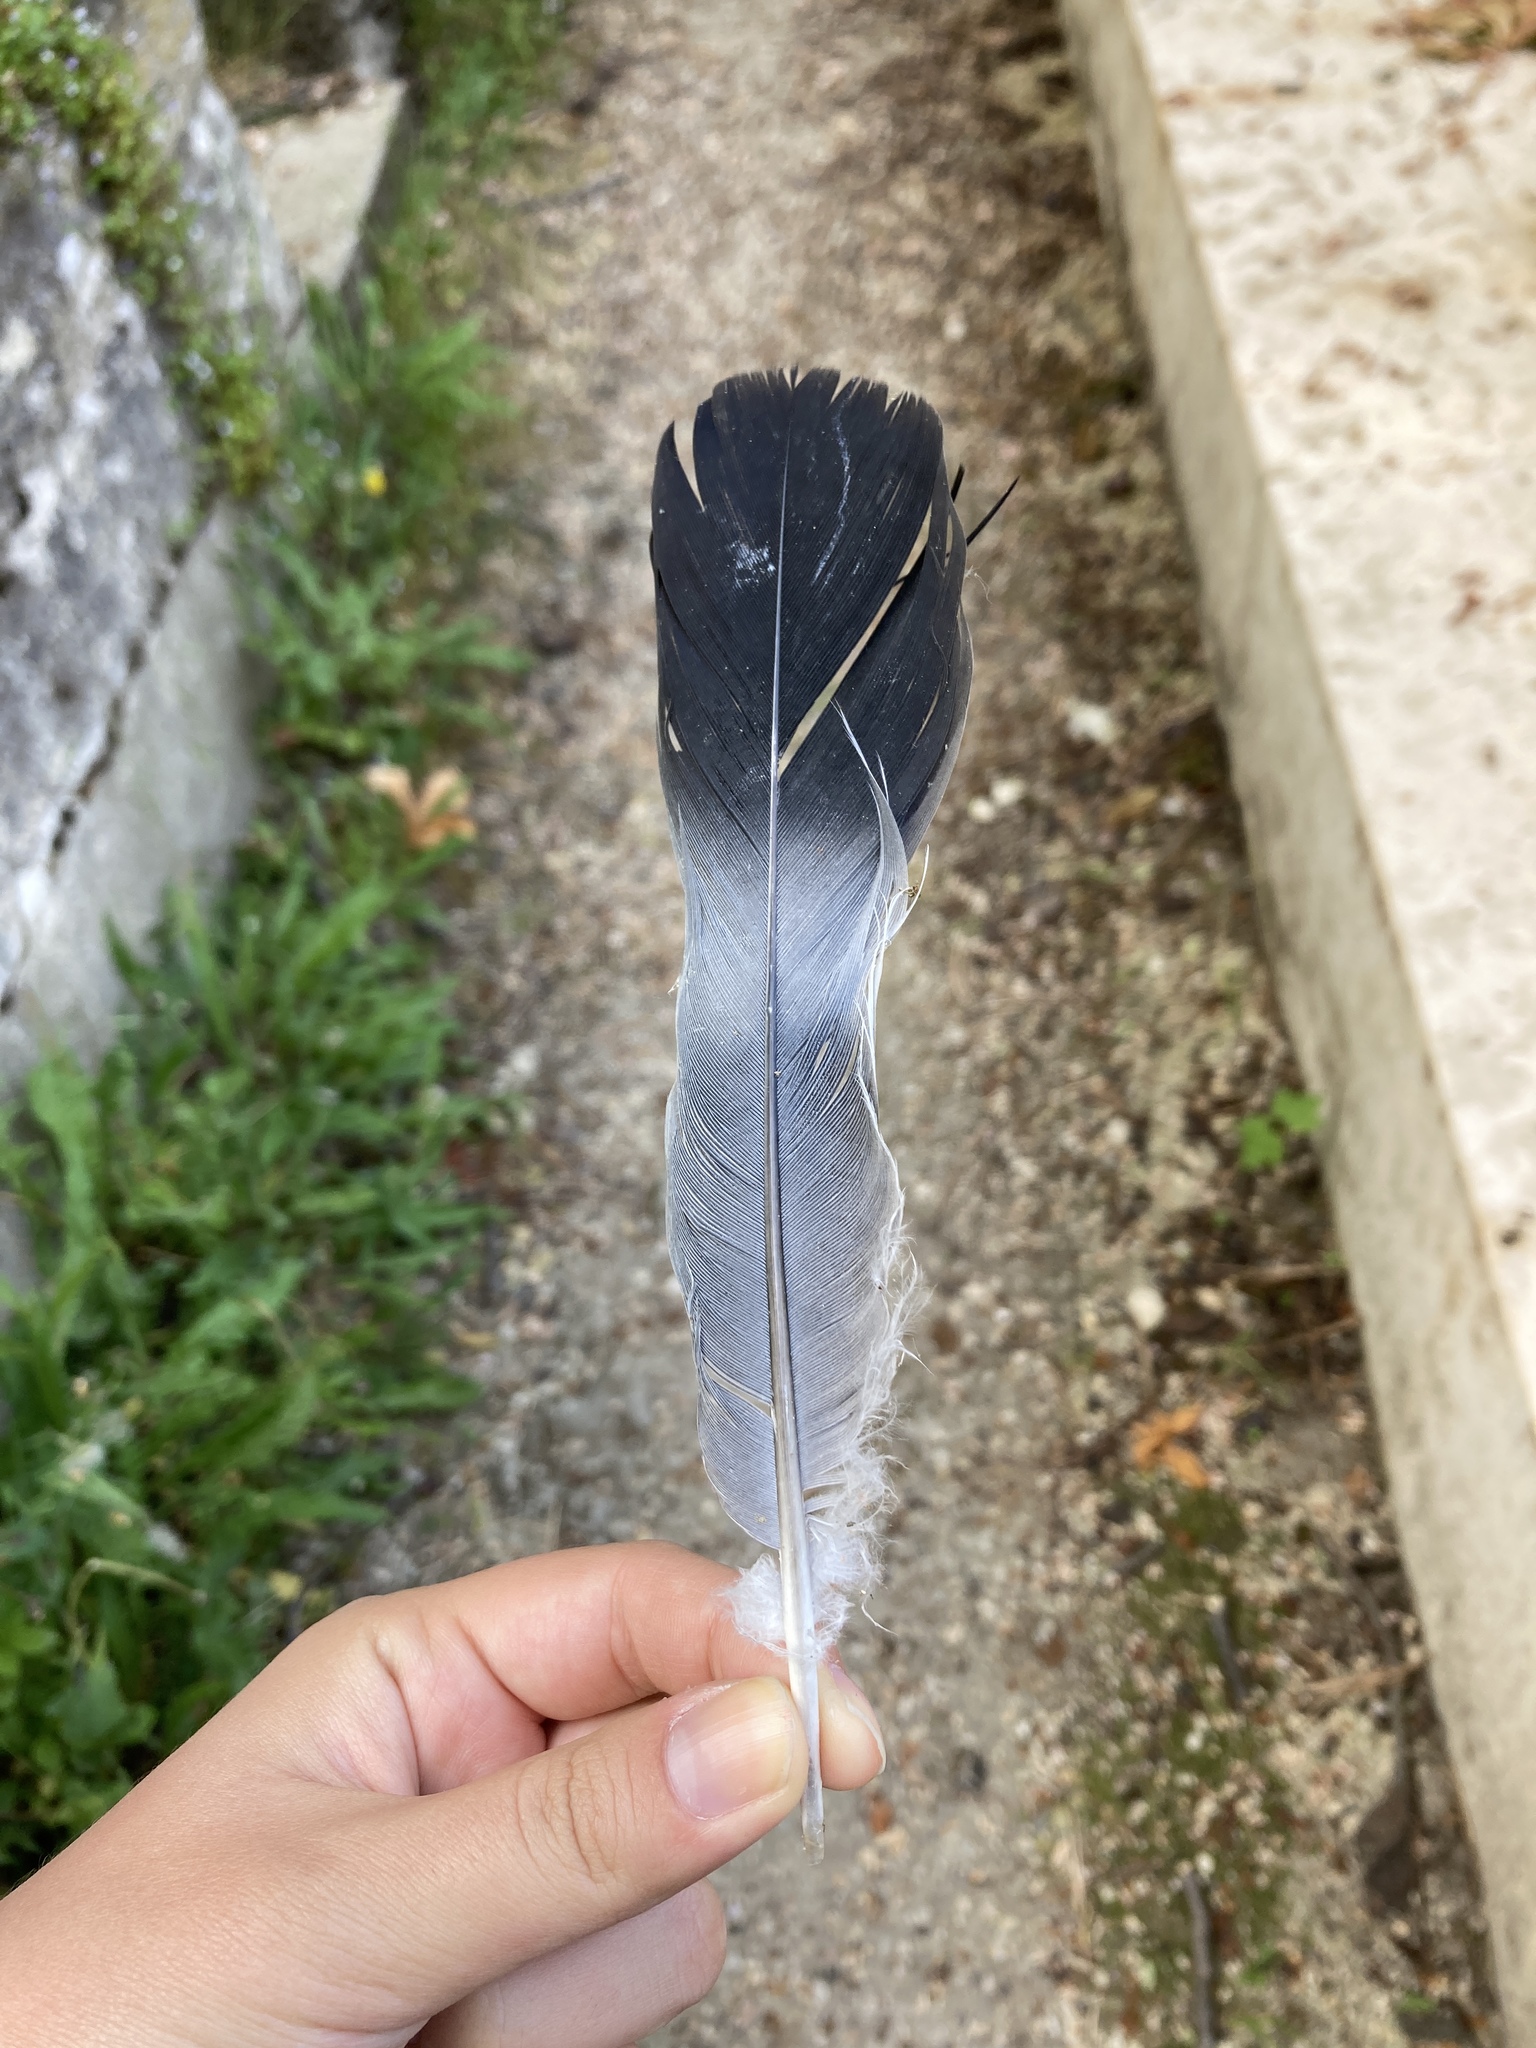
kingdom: Animalia
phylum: Chordata
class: Aves
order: Columbiformes
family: Columbidae
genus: Columba
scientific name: Columba palumbus
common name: Common wood pigeon
